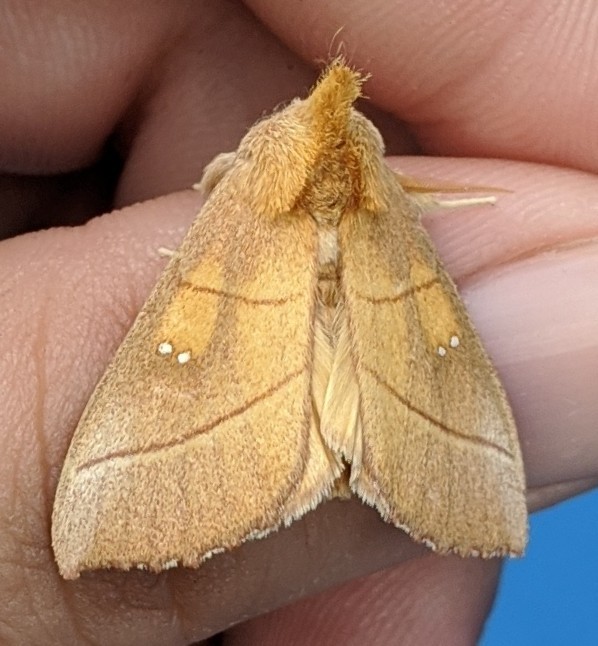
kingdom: Animalia
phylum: Arthropoda
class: Insecta
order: Lepidoptera
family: Notodontidae
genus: Nadata
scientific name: Nadata gibbosa
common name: White-dotted prominent
